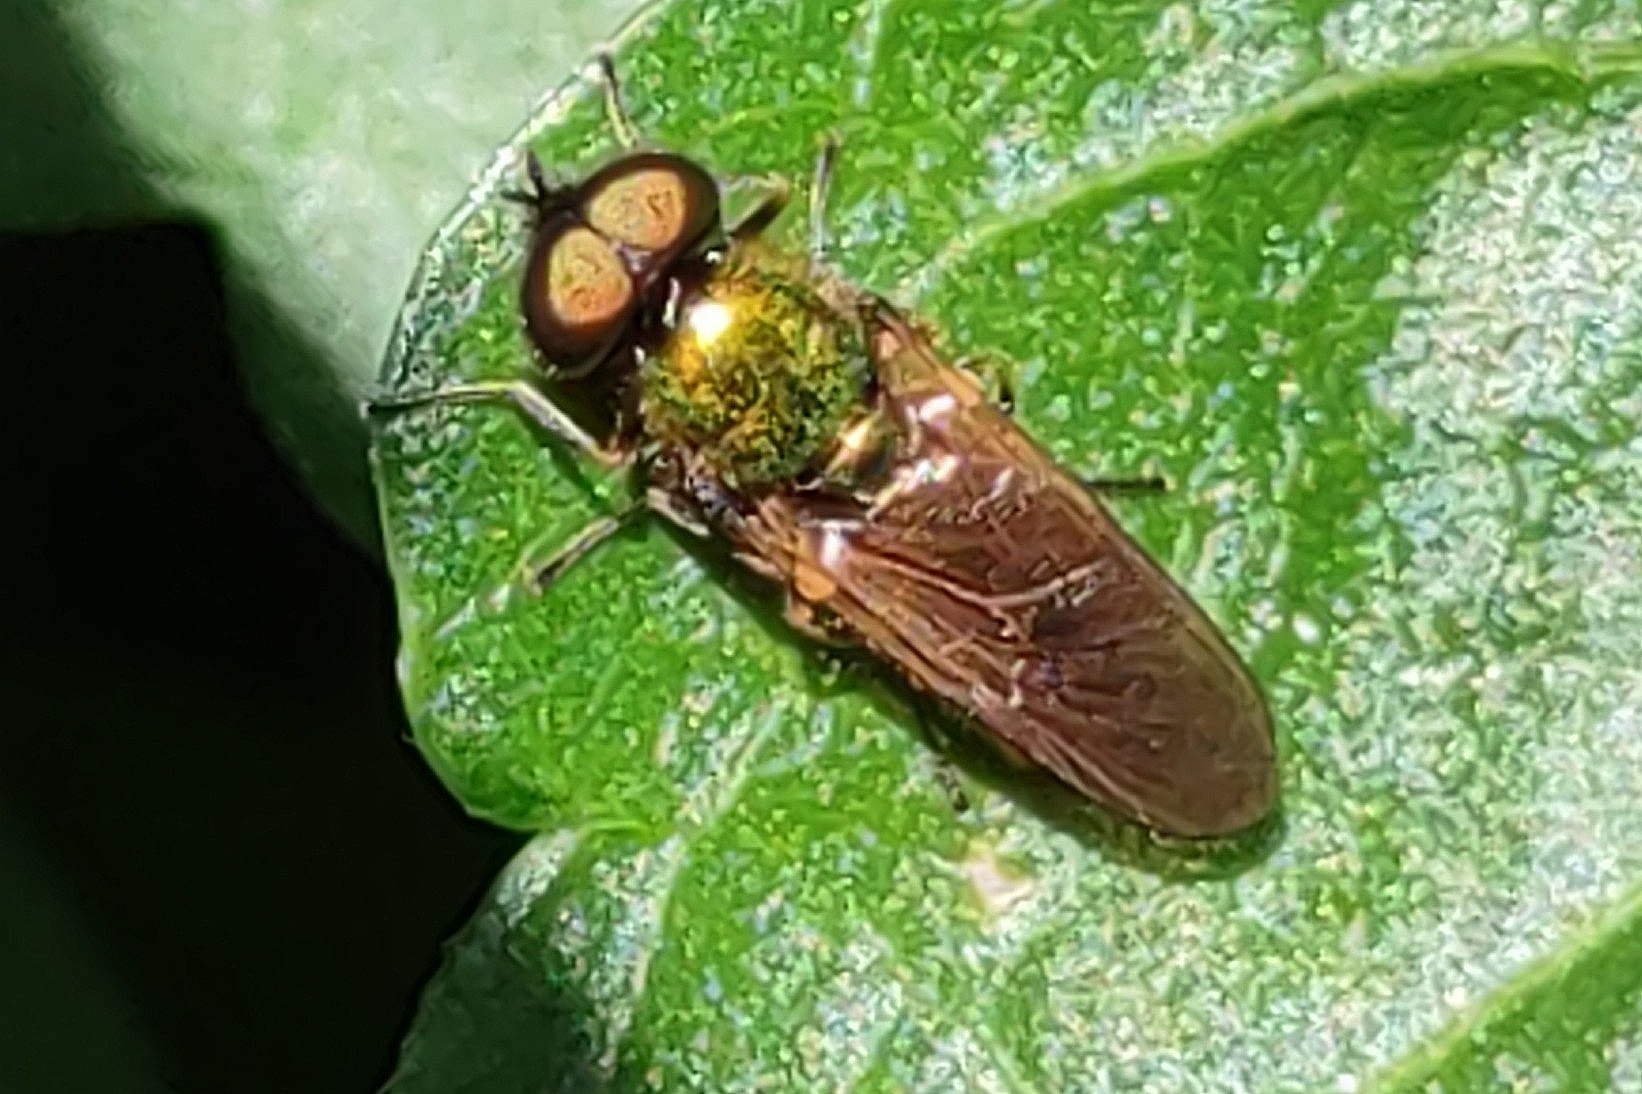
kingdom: Animalia
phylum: Arthropoda
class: Insecta
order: Diptera
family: Stratiomyidae
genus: Chloromyia
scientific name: Chloromyia formosa
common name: Soldier fly
